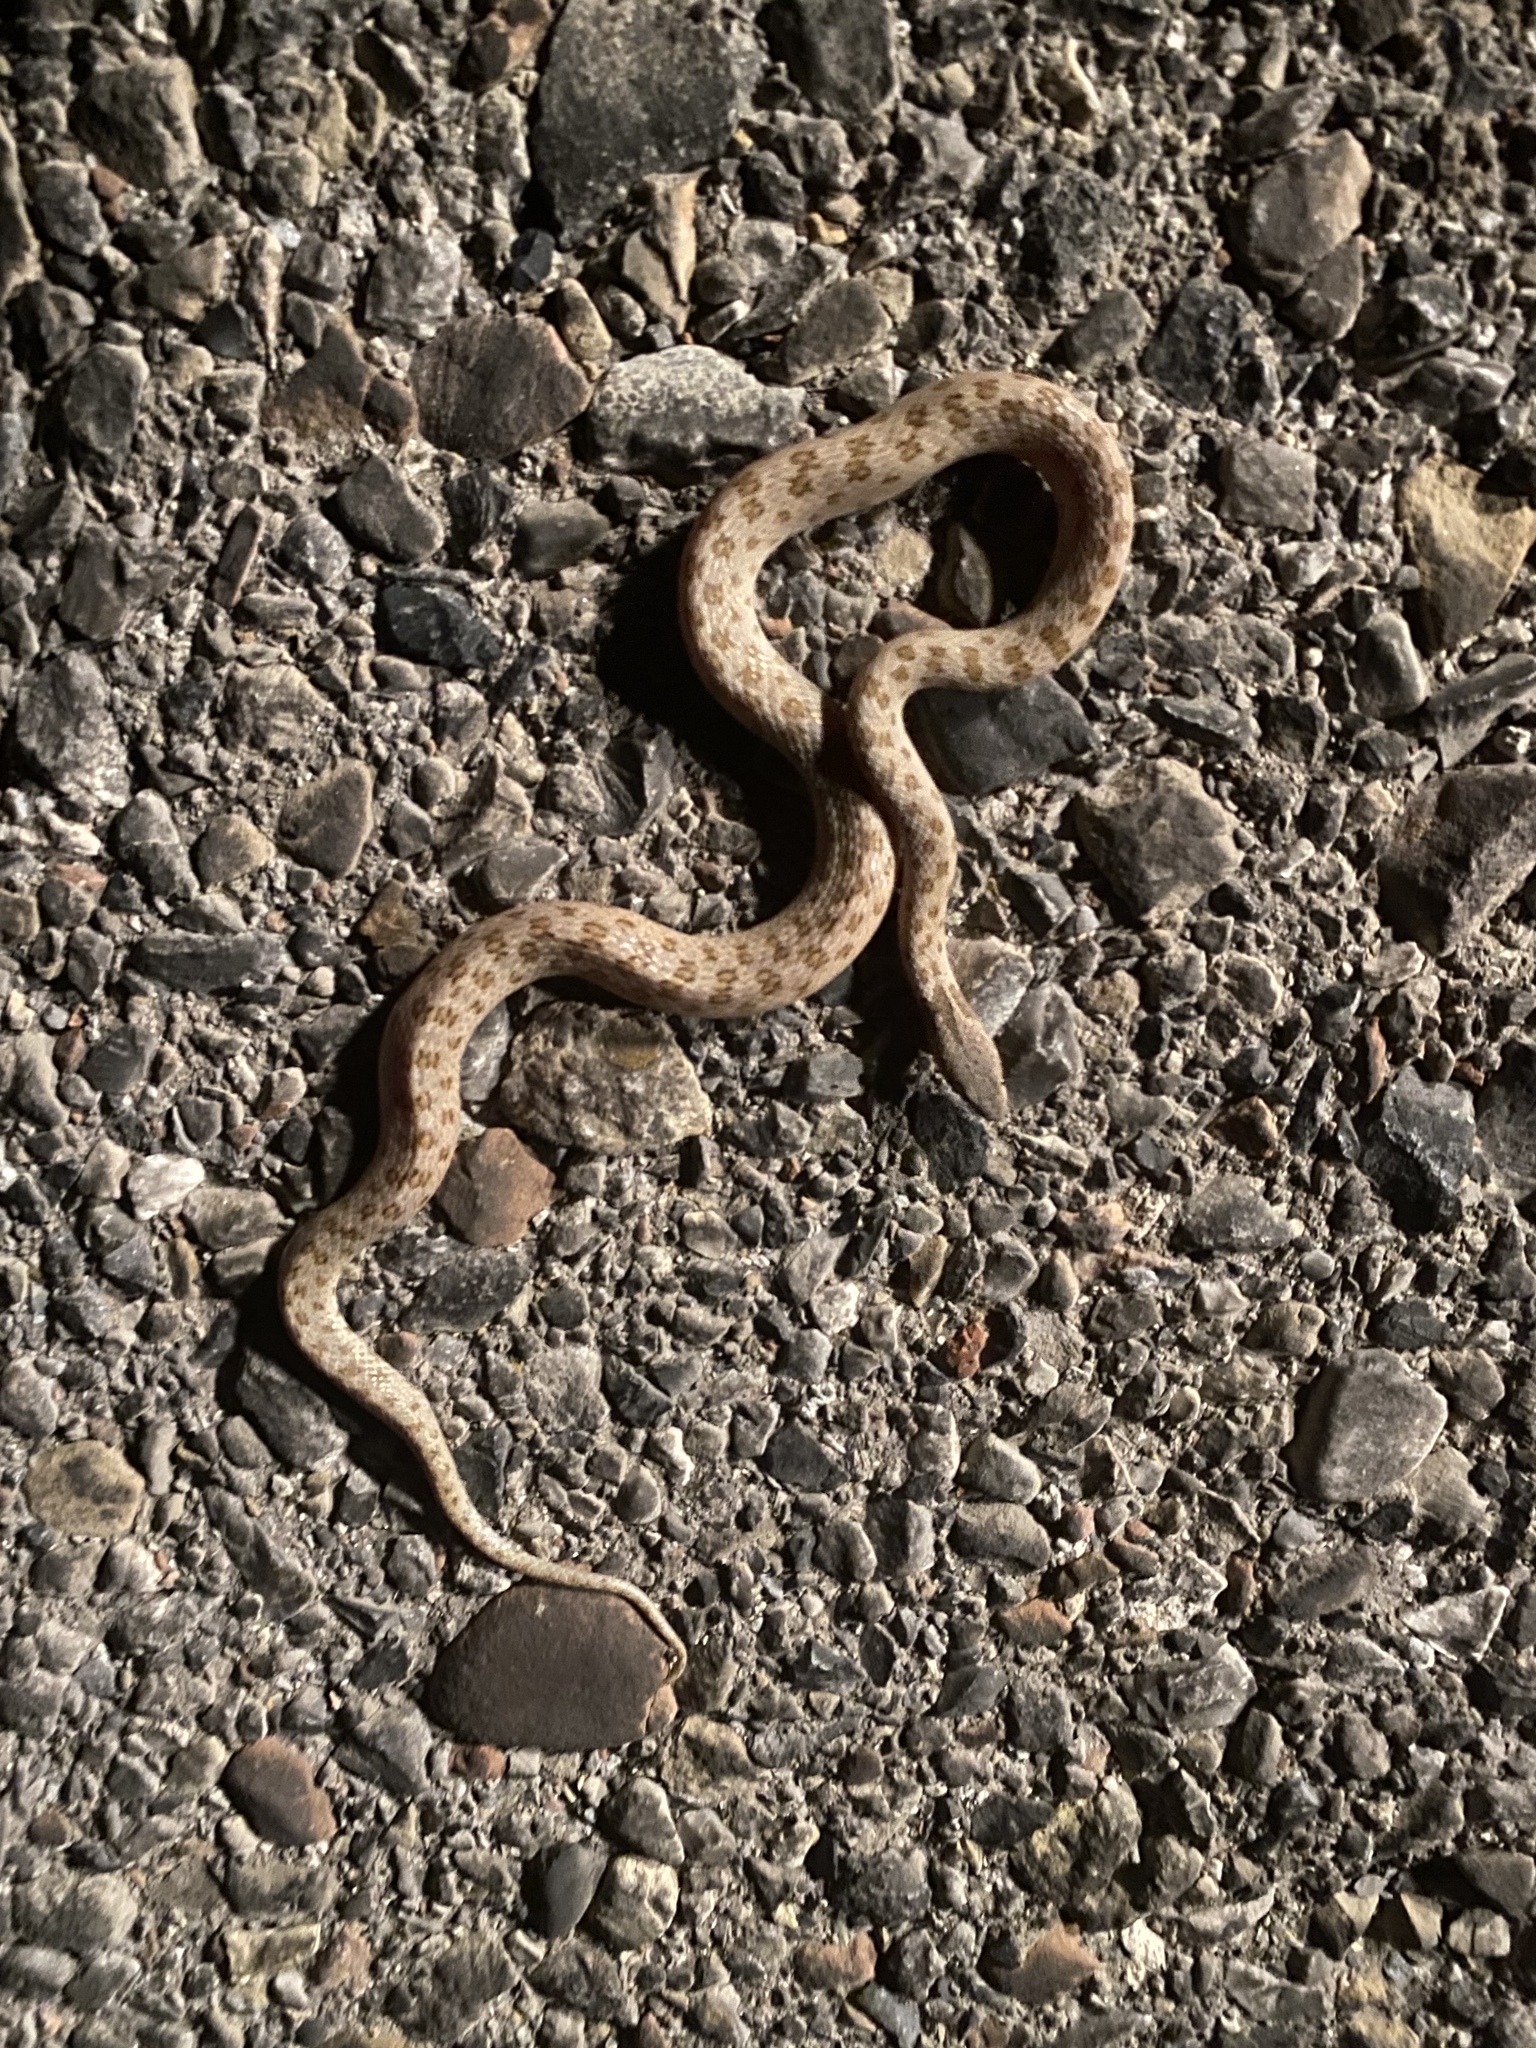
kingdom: Animalia
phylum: Chordata
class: Squamata
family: Colubridae
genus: Hypsiglena
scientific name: Hypsiglena chlorophaea
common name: Desert nightsnake
